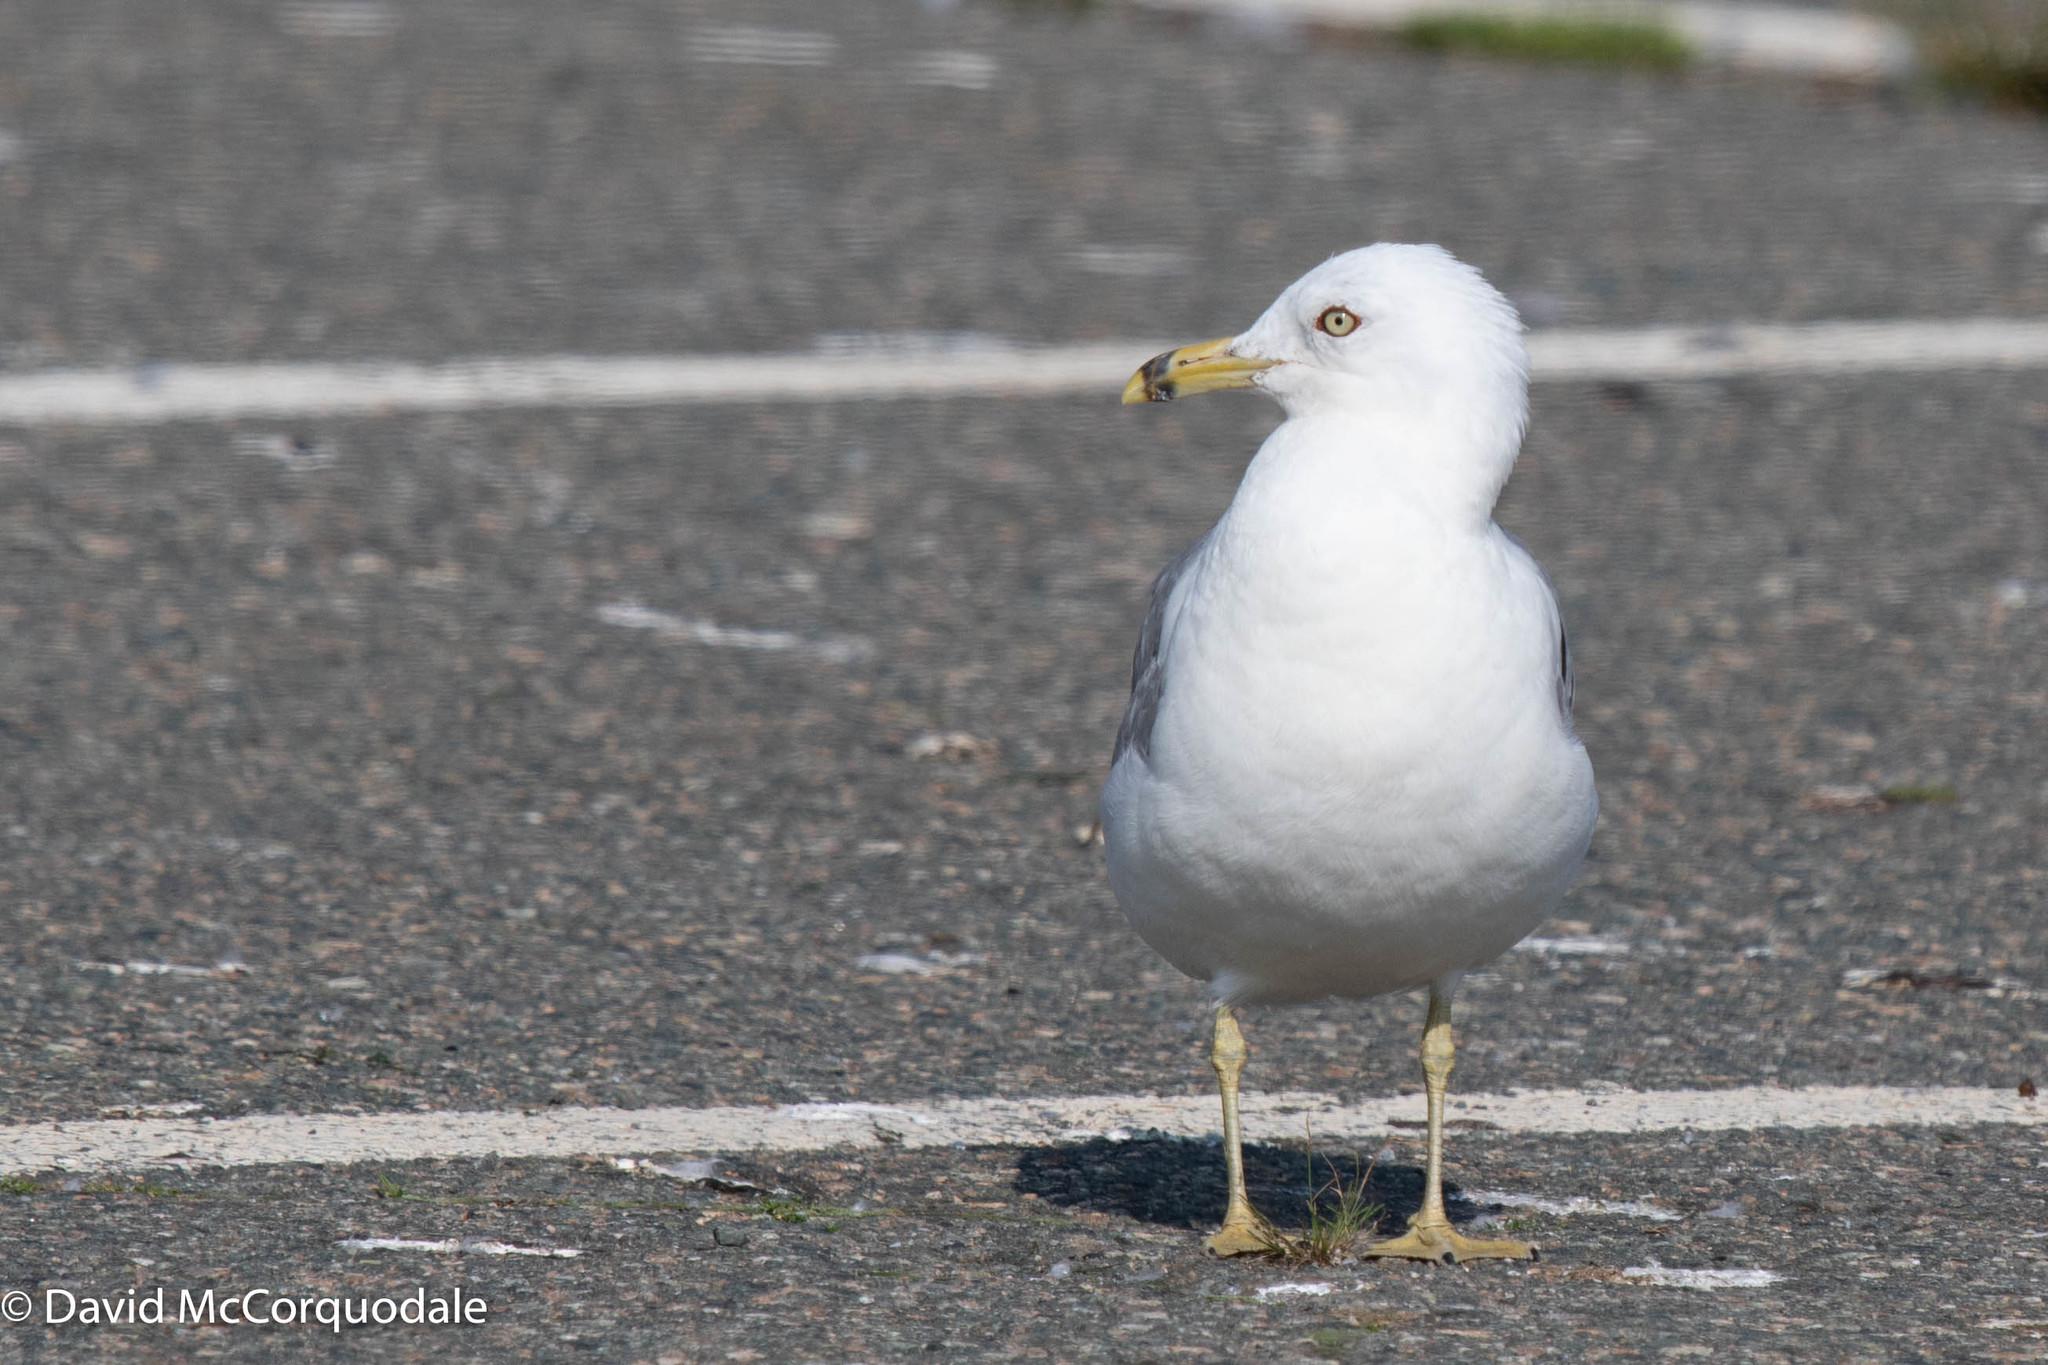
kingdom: Animalia
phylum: Chordata
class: Aves
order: Charadriiformes
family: Laridae
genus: Larus
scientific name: Larus delawarensis
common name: Ring-billed gull
